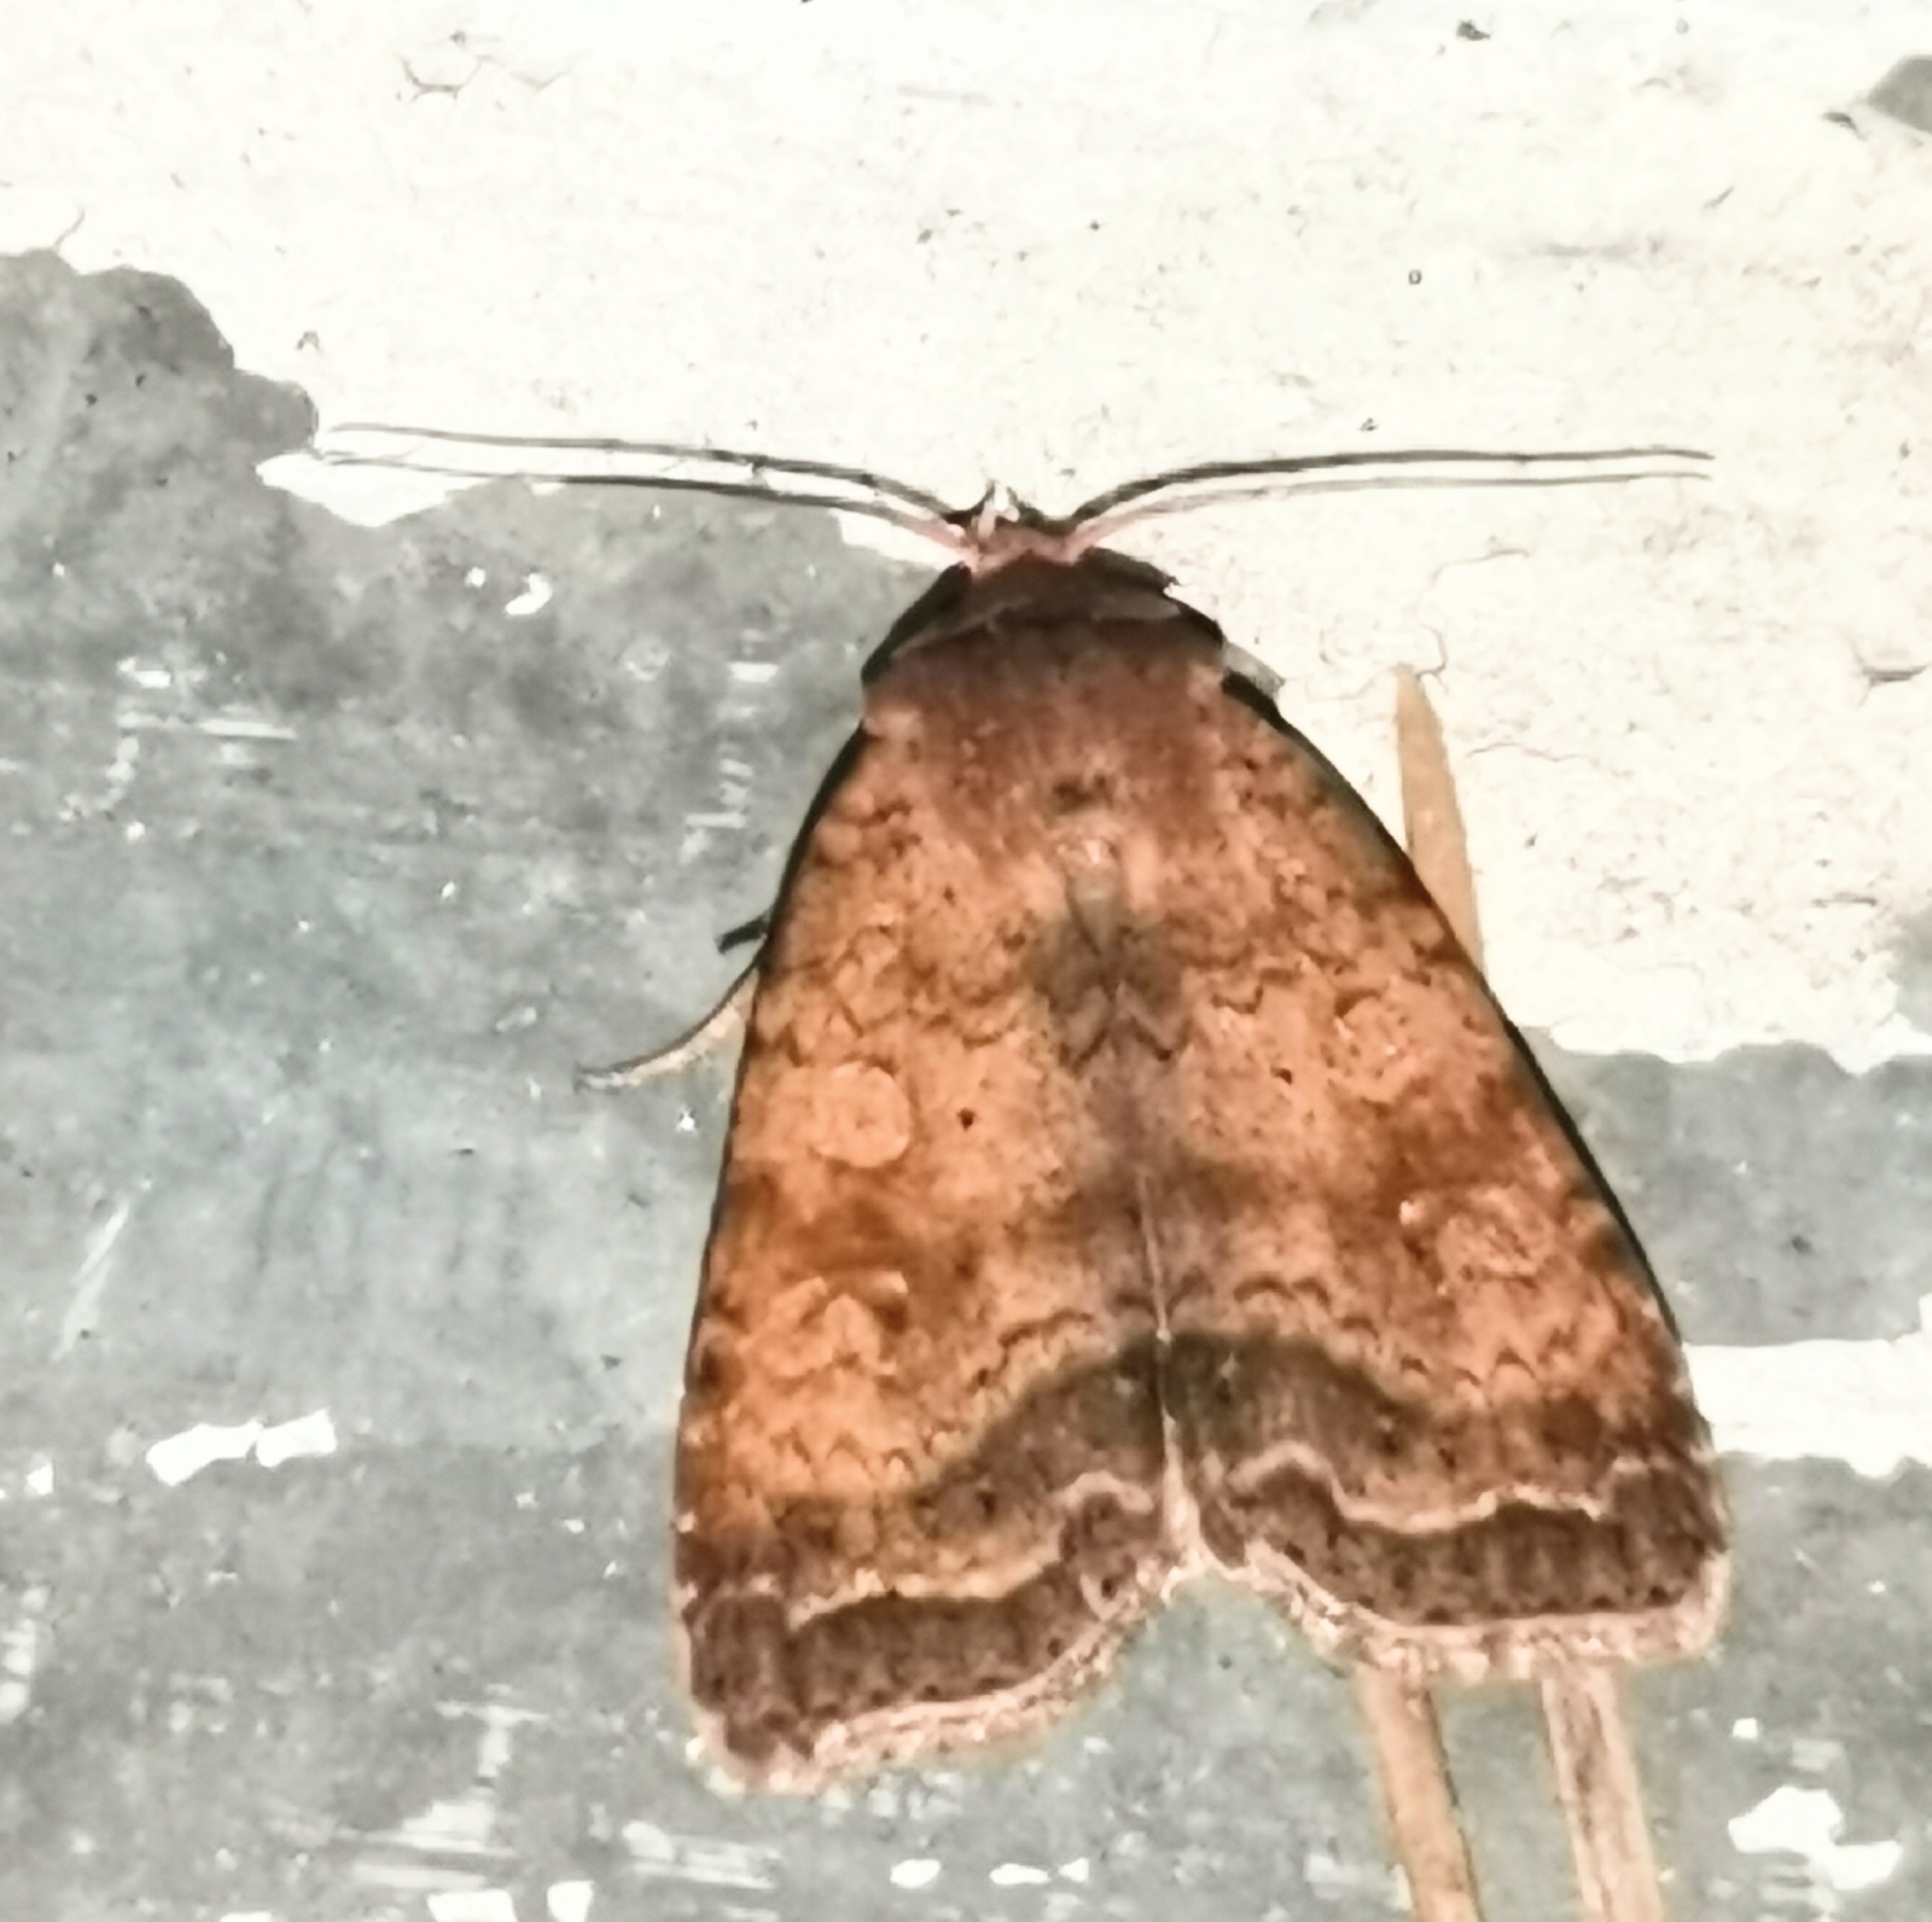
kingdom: Animalia
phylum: Arthropoda
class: Insecta
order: Lepidoptera
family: Noctuidae
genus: Diarsia
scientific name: Diarsia dahlii
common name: Barred chestnut
